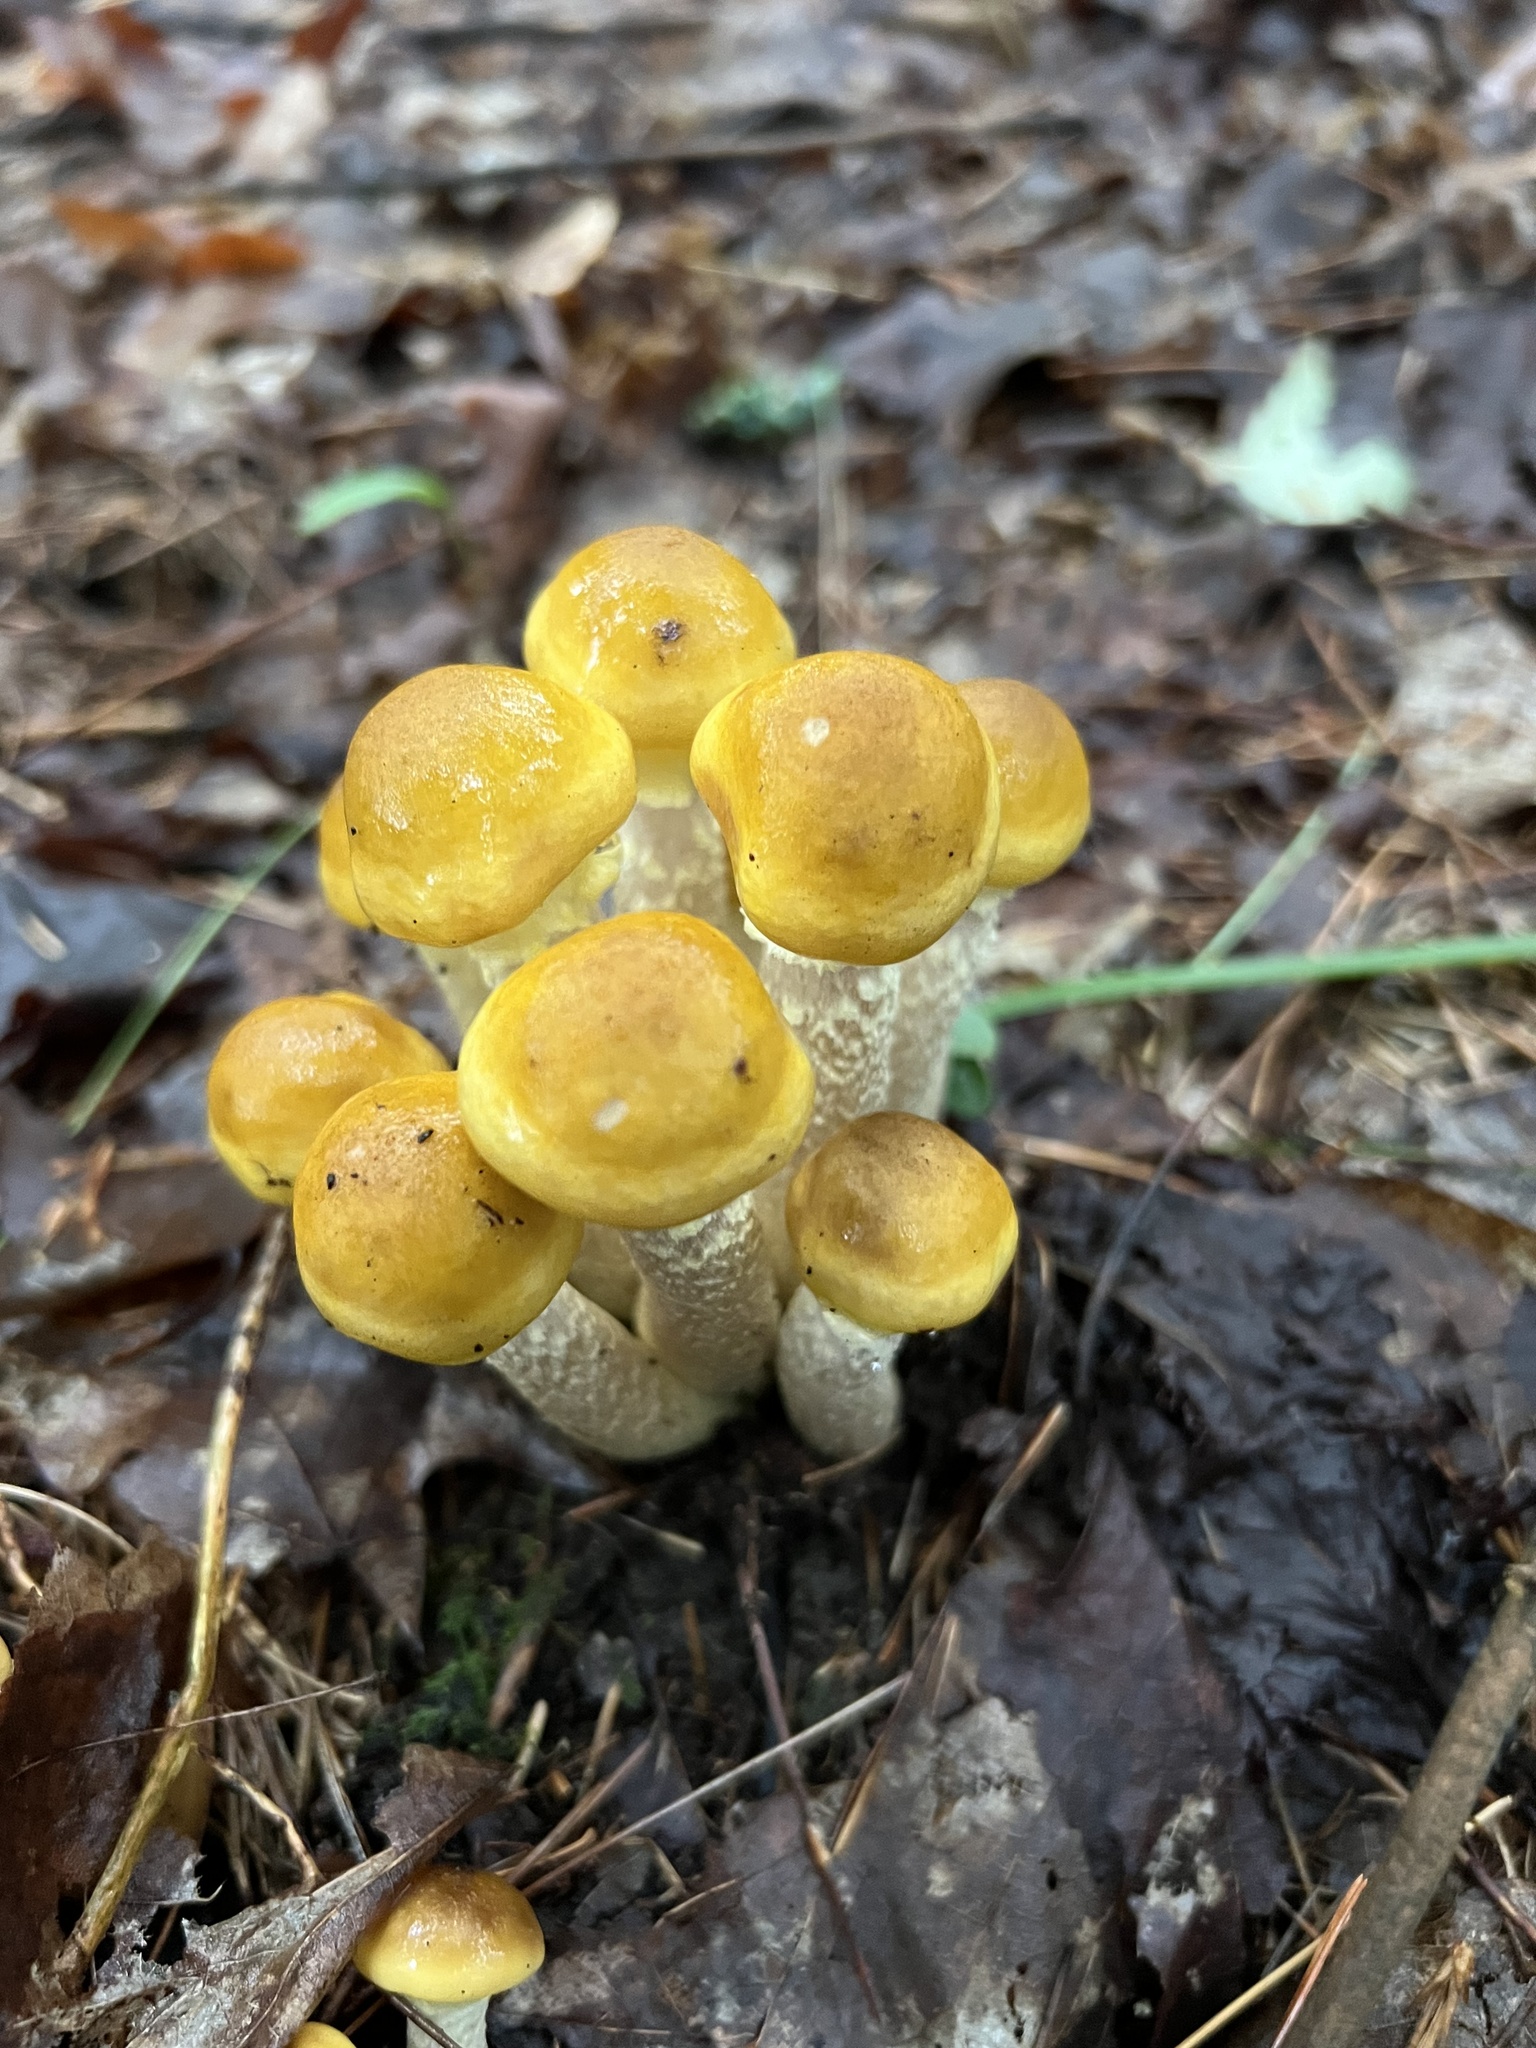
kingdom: Fungi
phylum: Basidiomycota
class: Agaricomycetes
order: Agaricales
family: Physalacriaceae
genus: Armillaria
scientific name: Armillaria mellea
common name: Honey fungus
